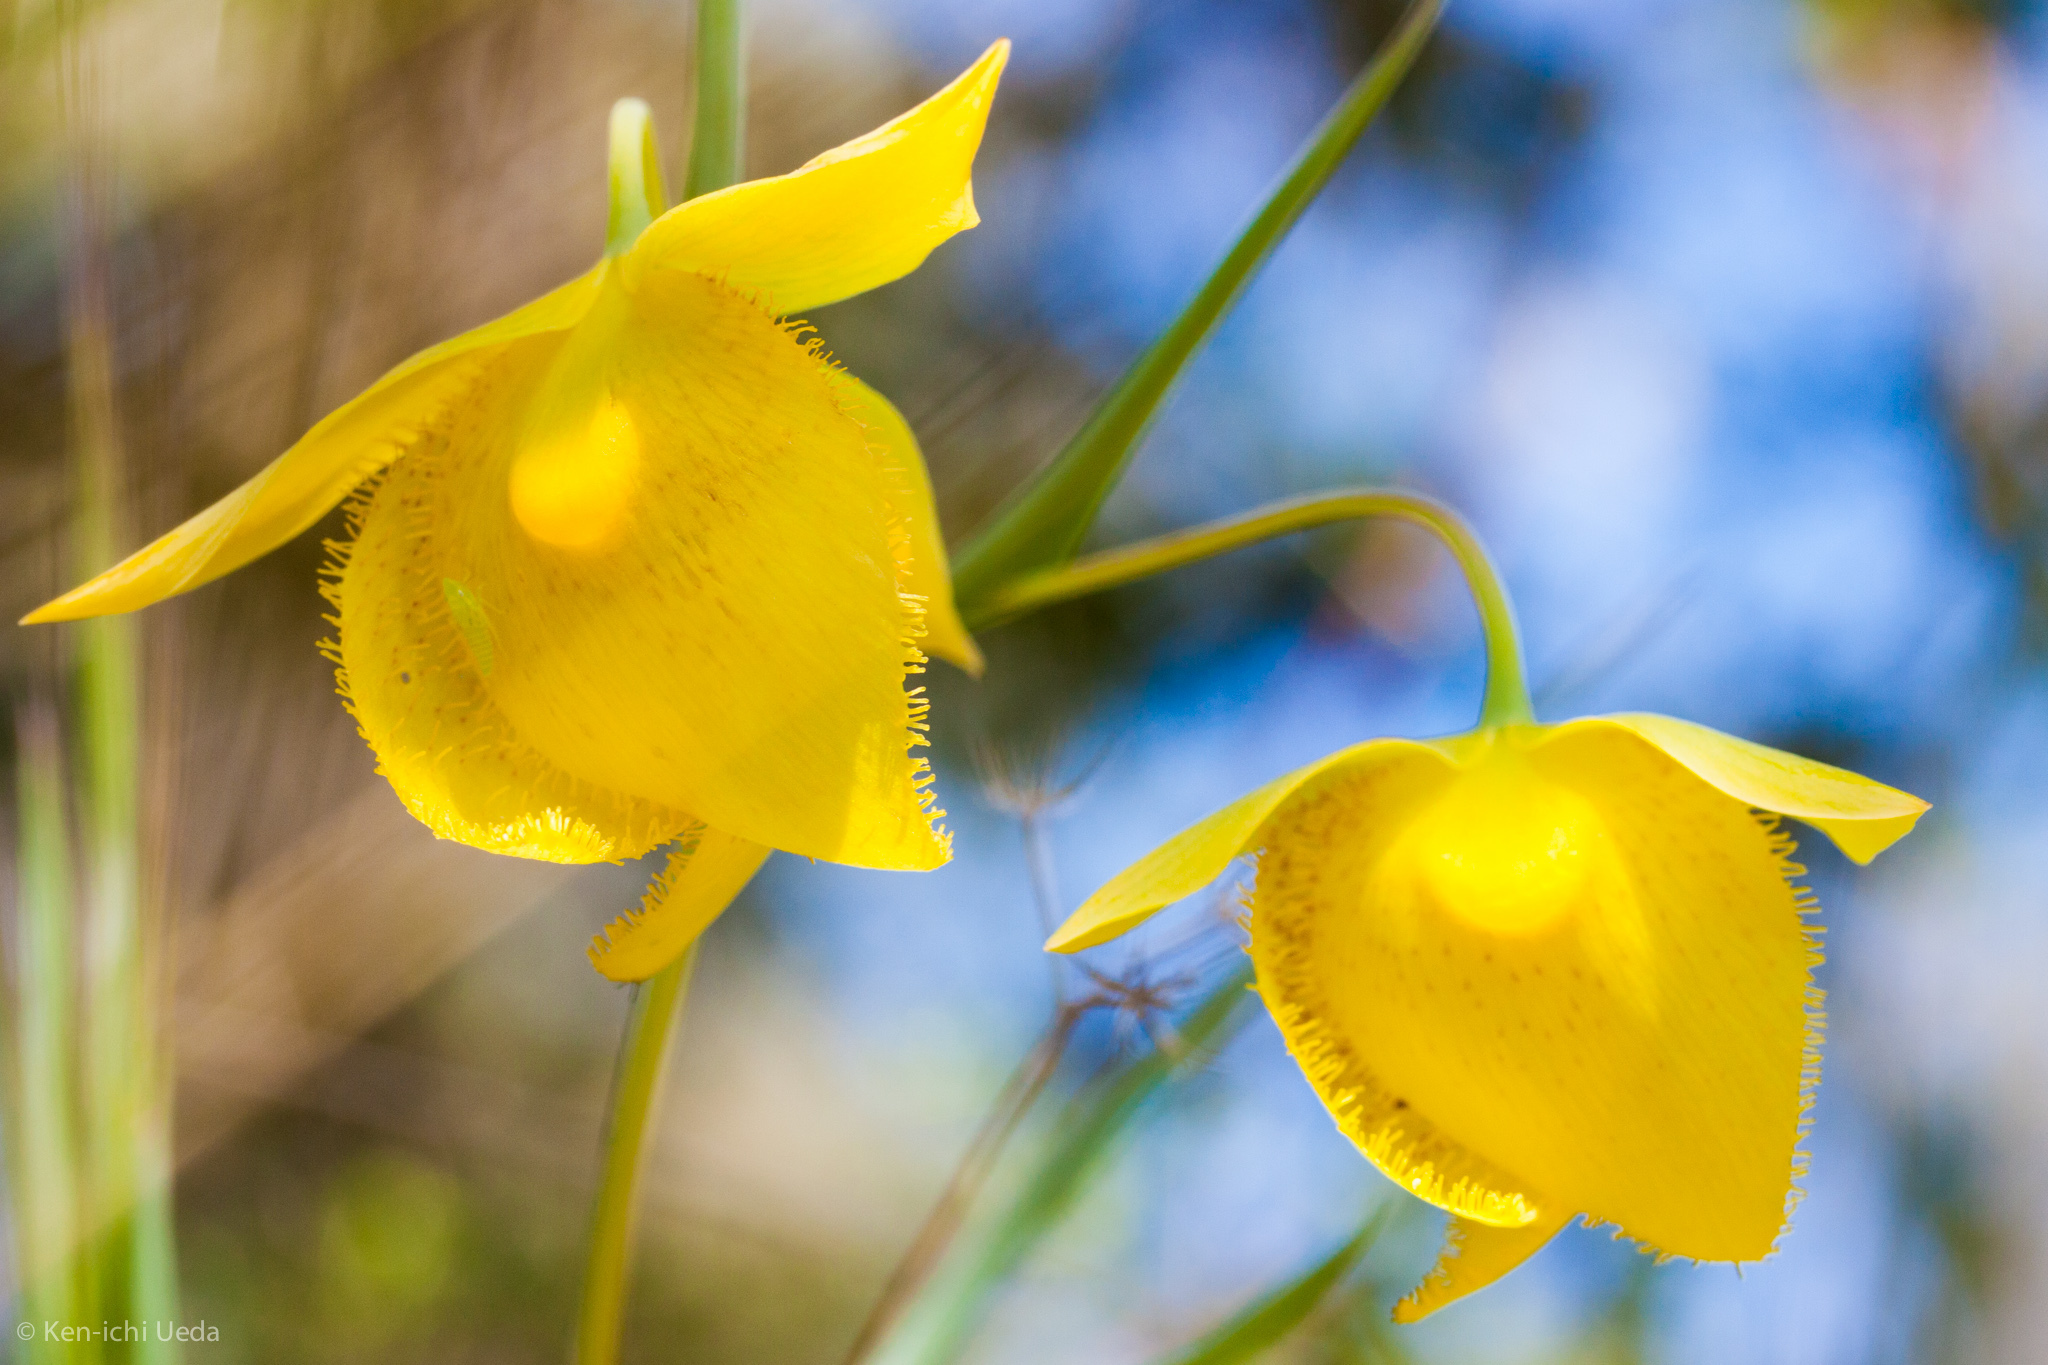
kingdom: Plantae
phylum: Tracheophyta
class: Liliopsida
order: Liliales
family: Liliaceae
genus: Calochortus
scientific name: Calochortus pulchellus
